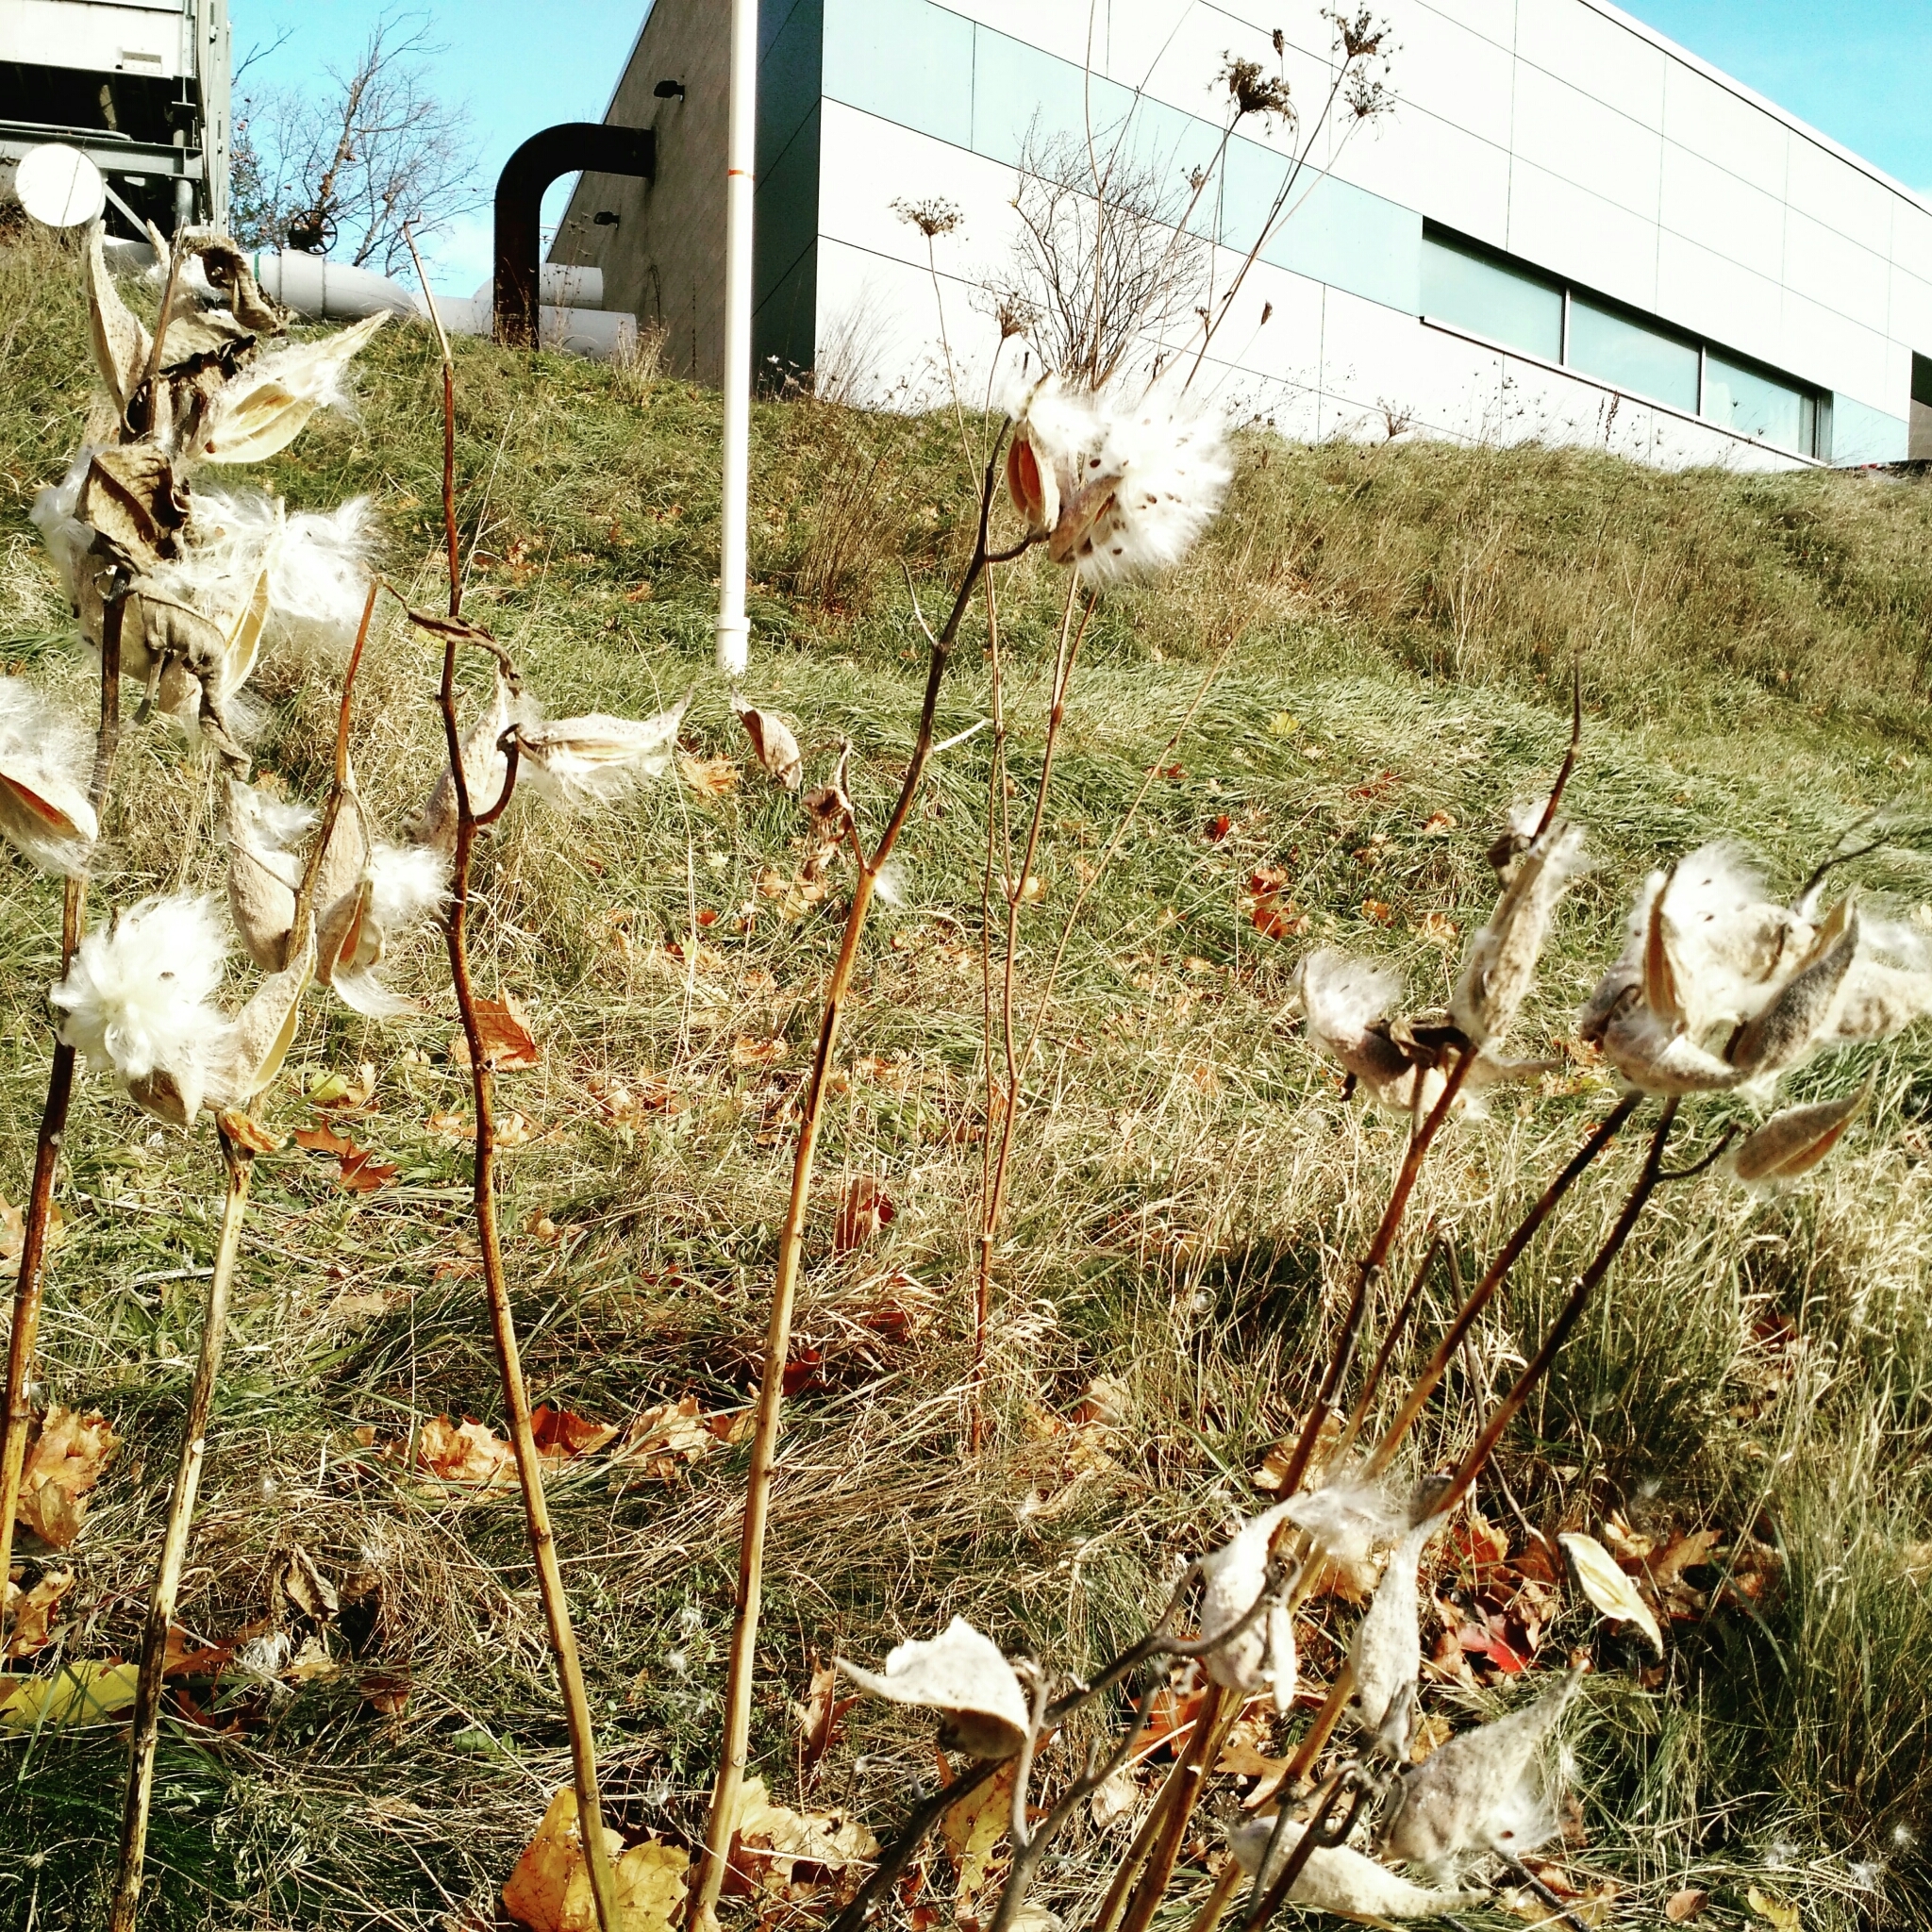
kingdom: Plantae
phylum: Tracheophyta
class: Magnoliopsida
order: Gentianales
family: Apocynaceae
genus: Asclepias
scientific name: Asclepias syriaca
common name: Common milkweed
